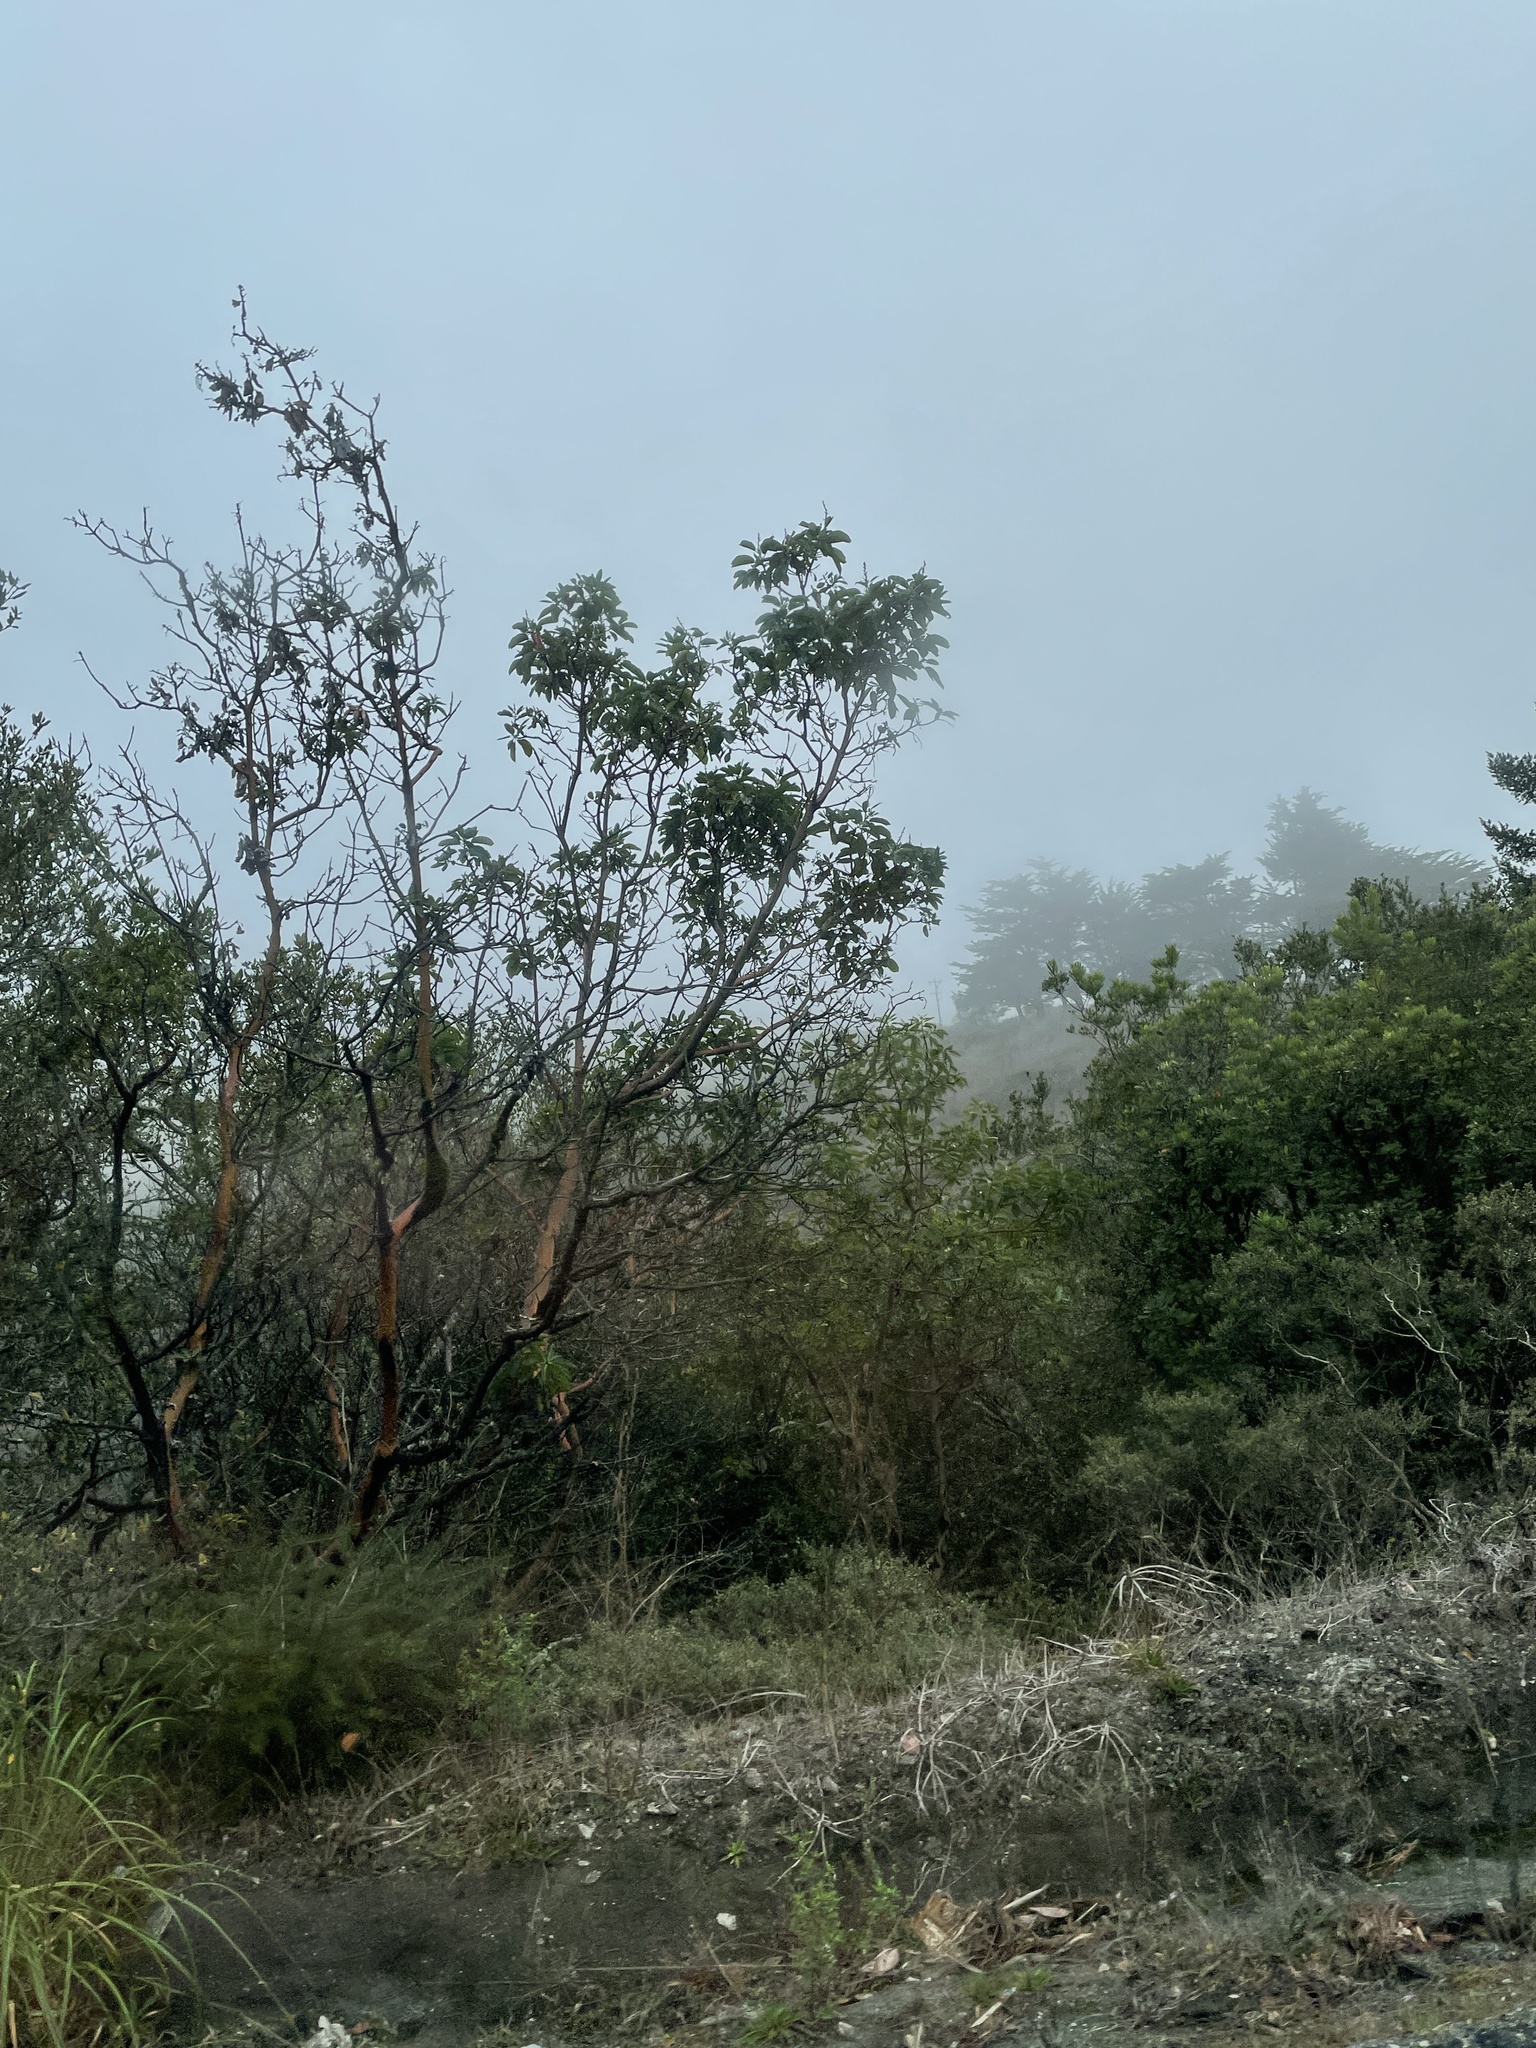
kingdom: Plantae
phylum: Tracheophyta
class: Magnoliopsida
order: Ericales
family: Ericaceae
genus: Arbutus
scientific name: Arbutus menziesii
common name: Pacific madrone
